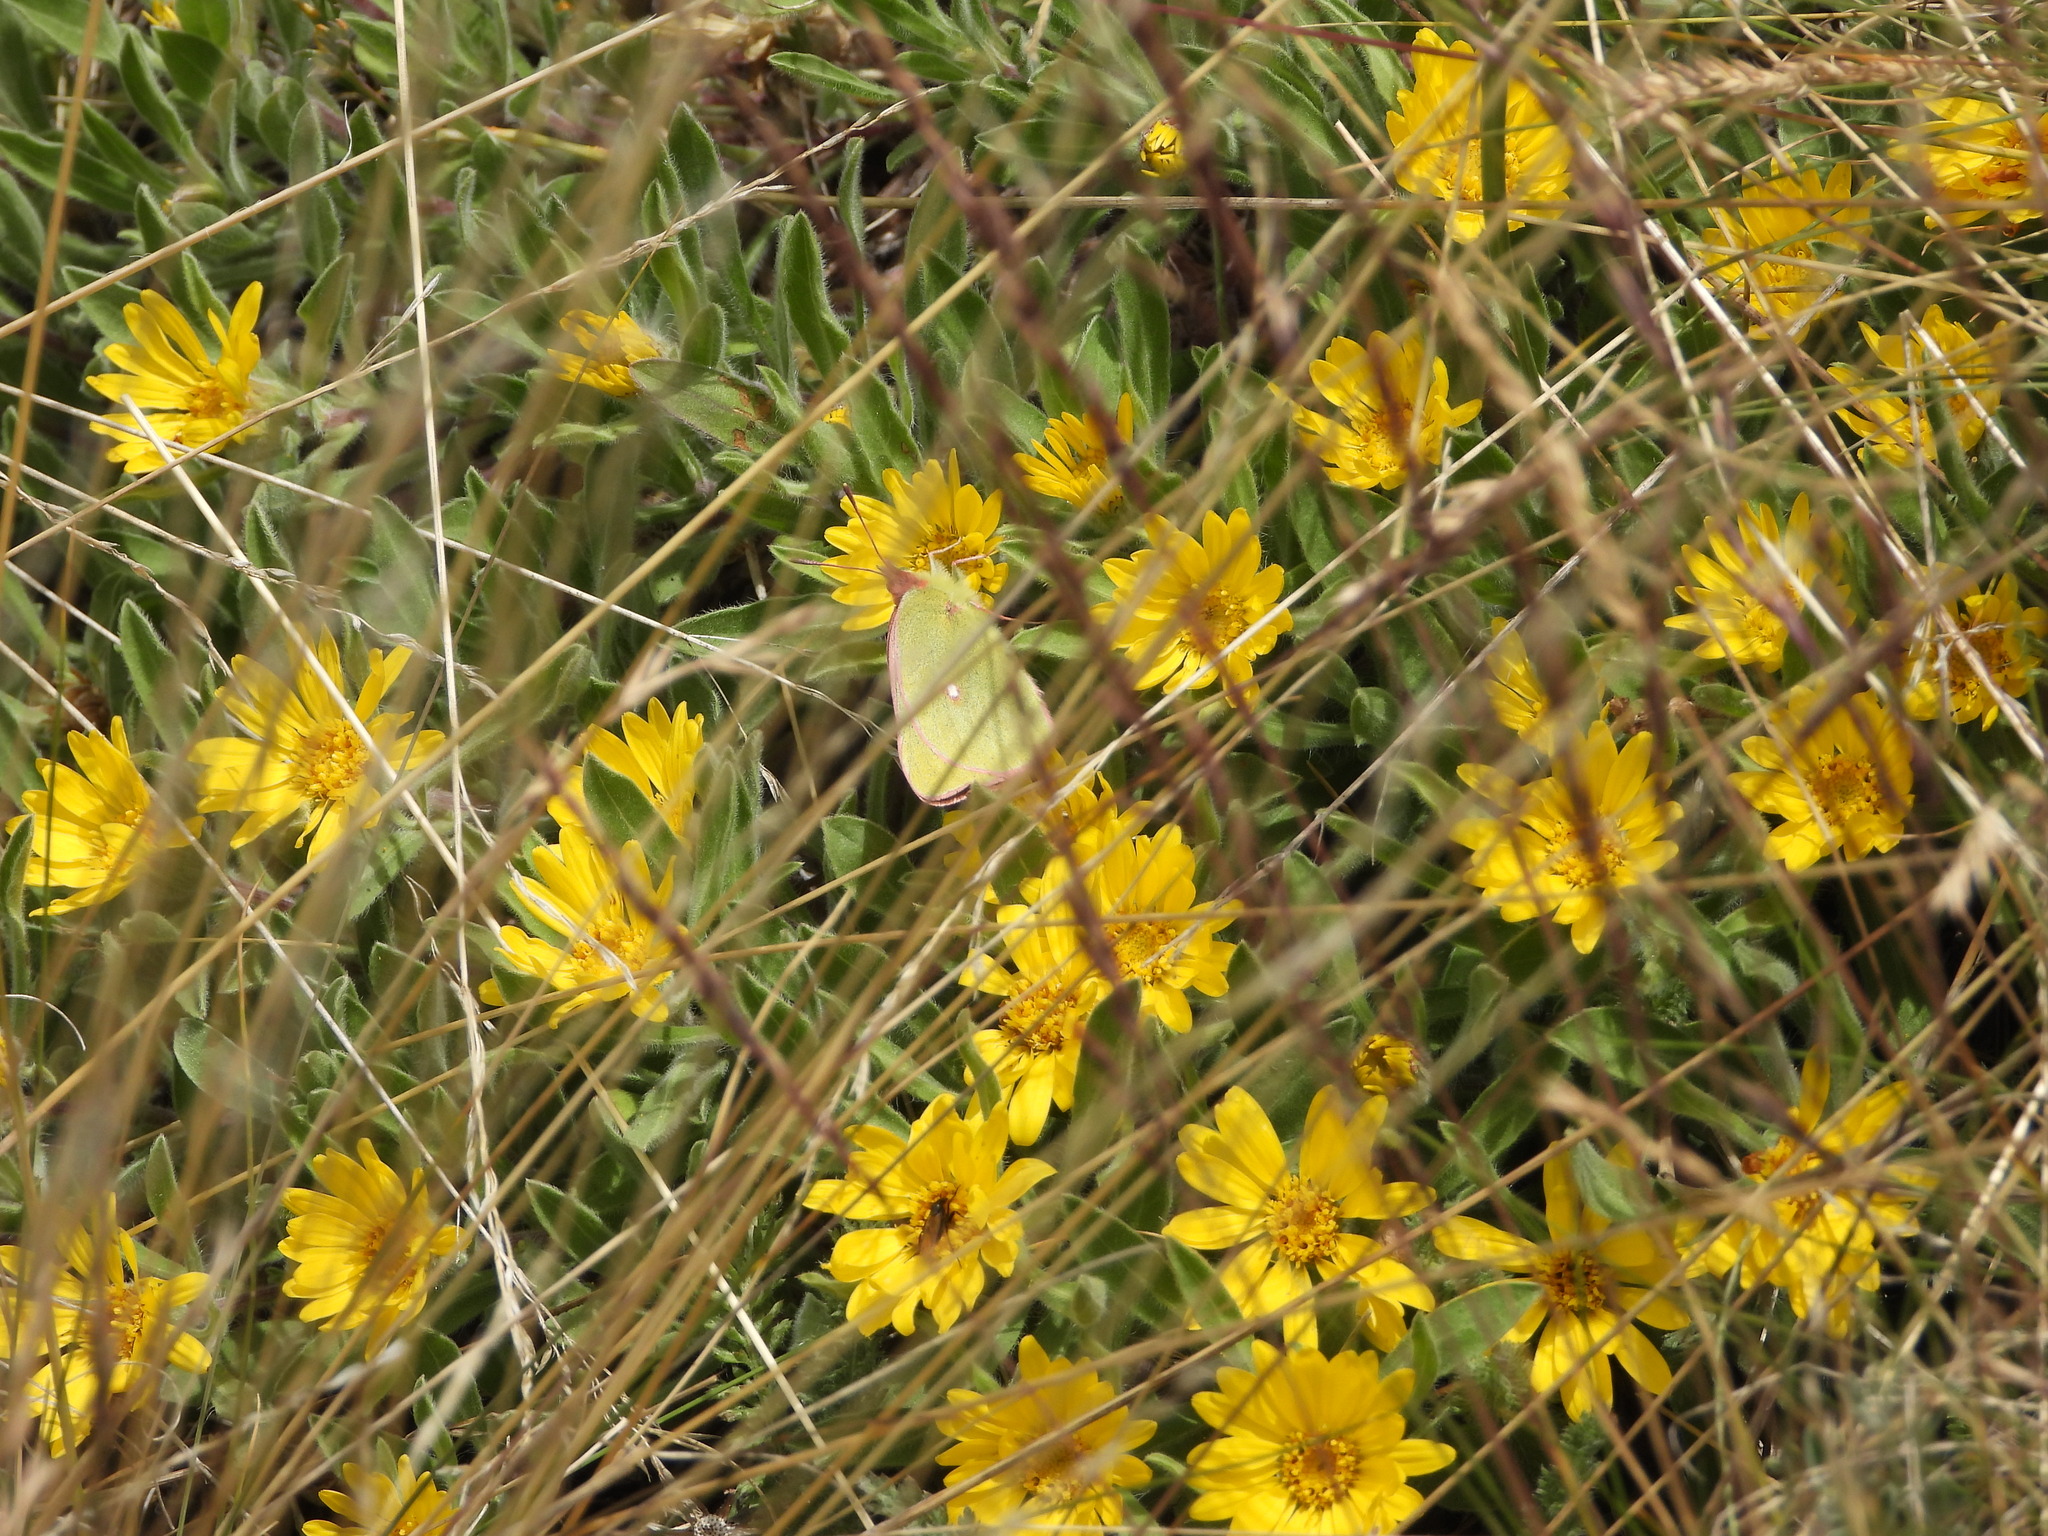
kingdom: Animalia
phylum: Arthropoda
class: Insecta
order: Lepidoptera
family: Pieridae
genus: Colias
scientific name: Colias meadii
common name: Mead's sulphur
